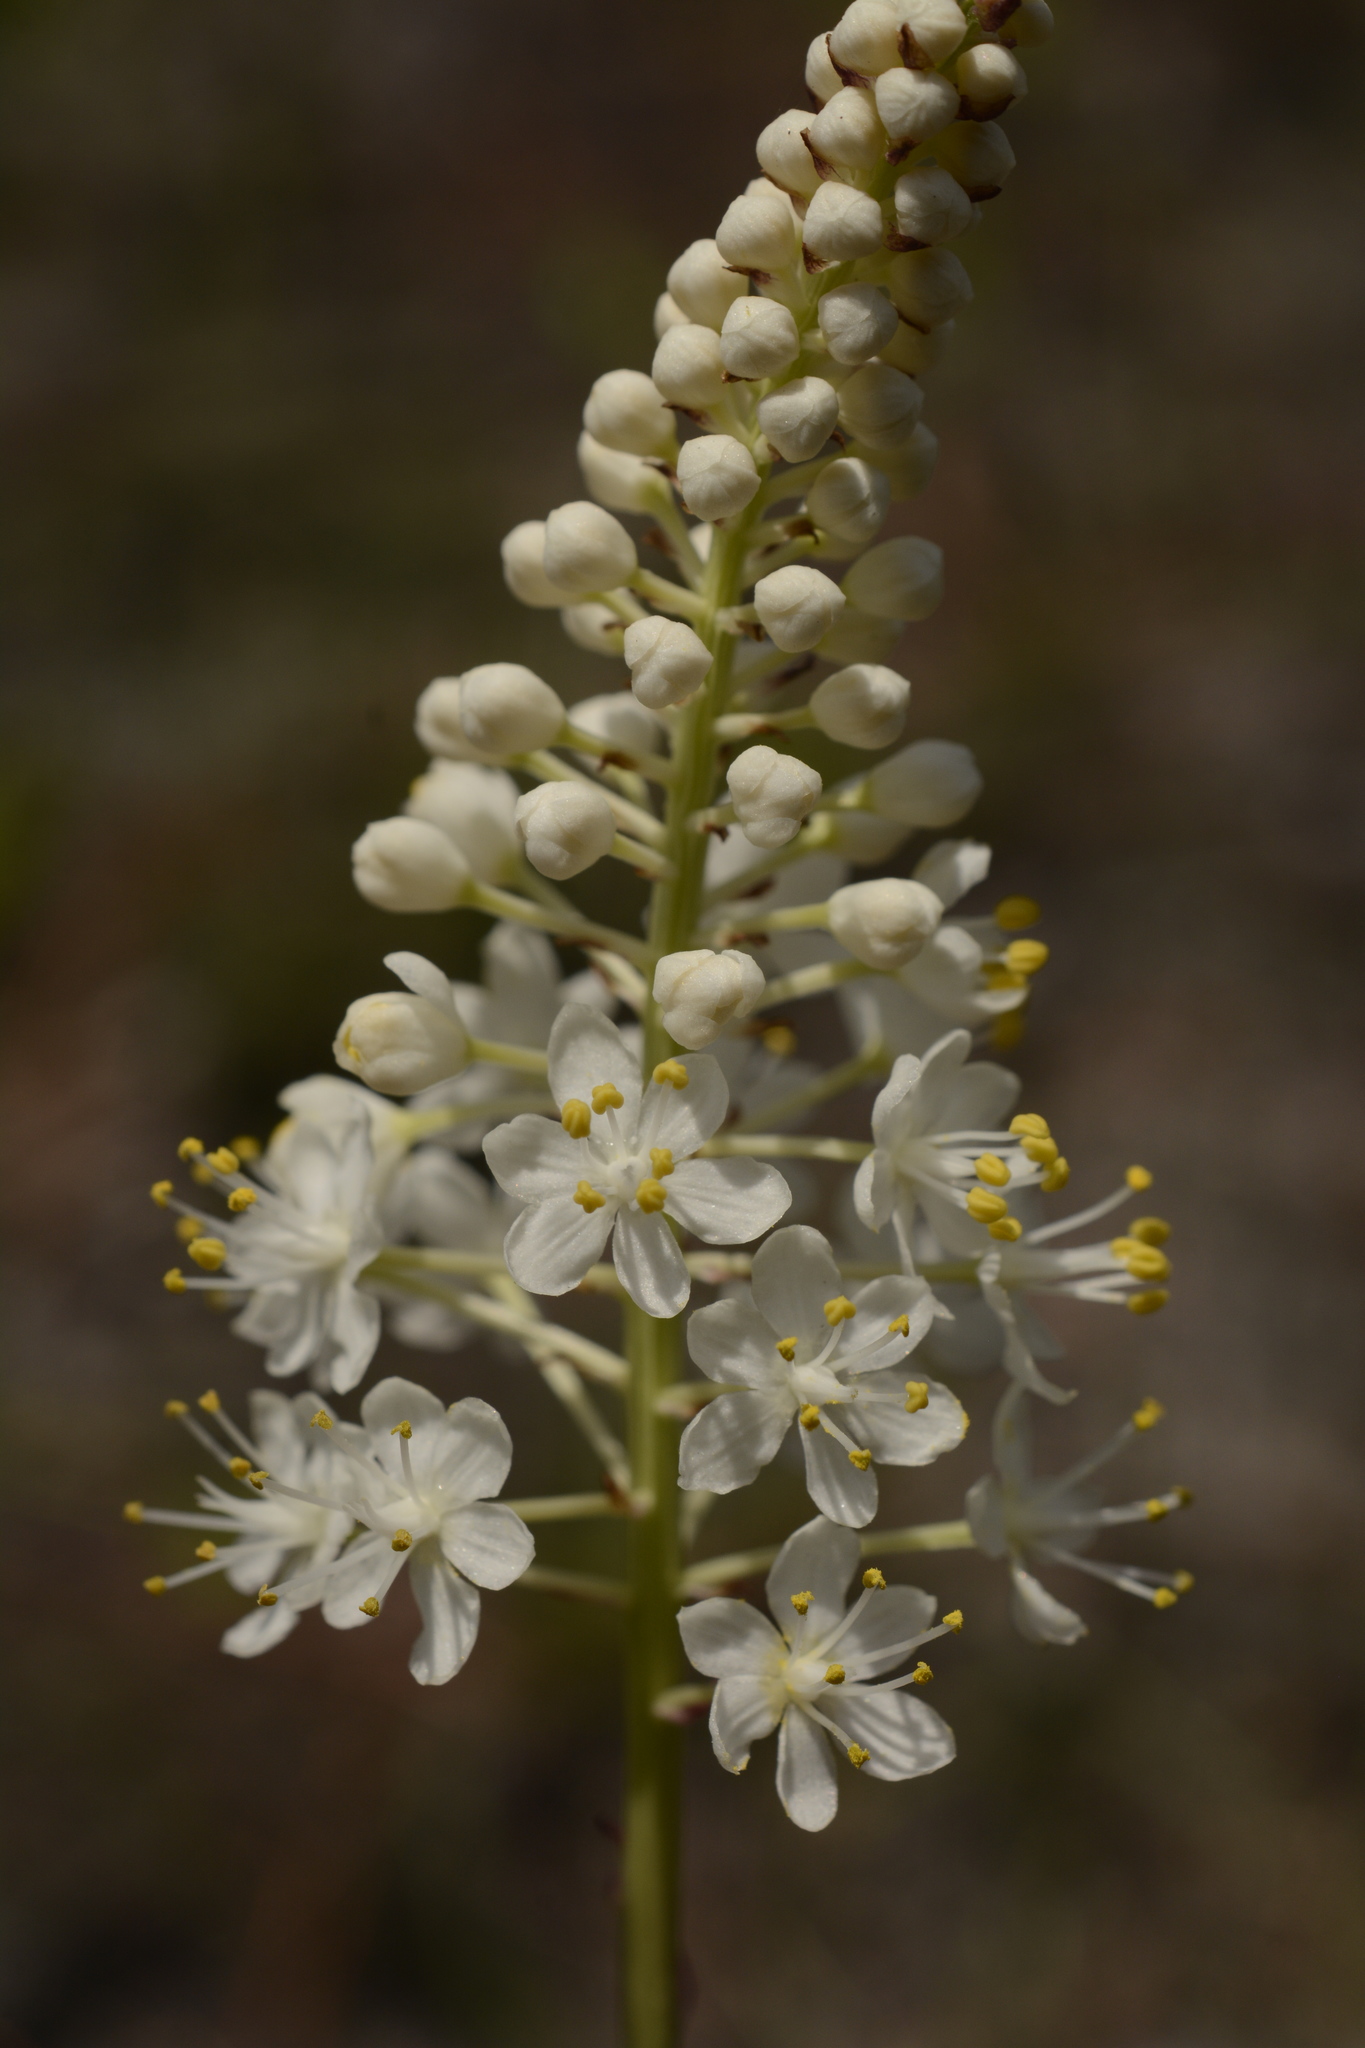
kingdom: Plantae
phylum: Tracheophyta
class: Liliopsida
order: Liliales
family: Melanthiaceae
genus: Stenanthium
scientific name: Stenanthium densum
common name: Crow-poison
